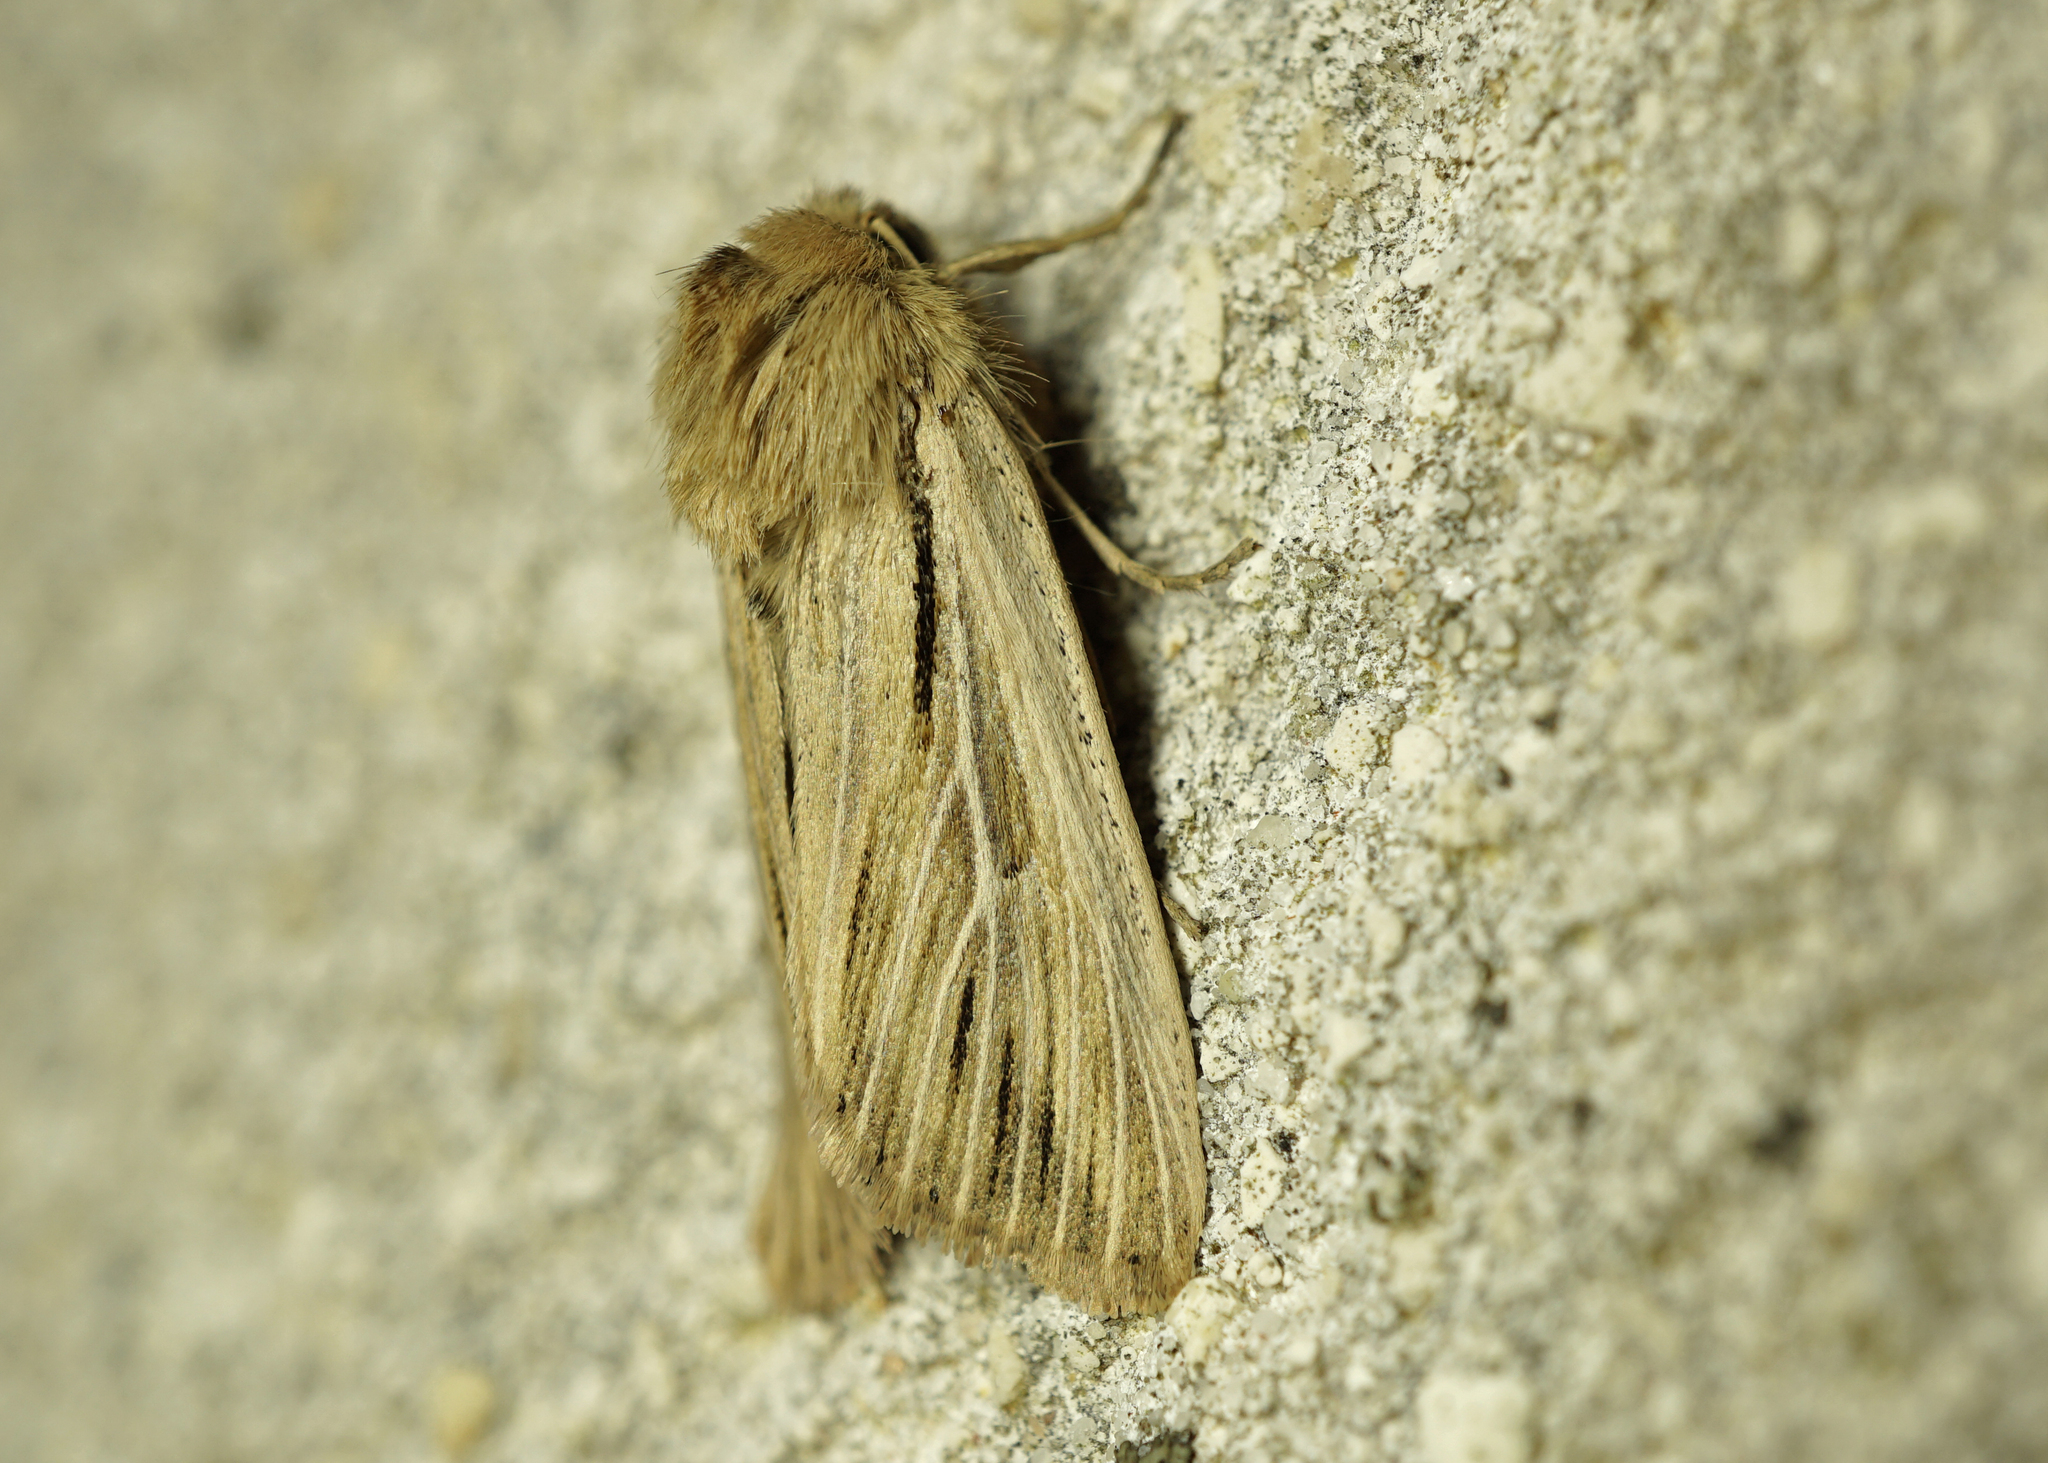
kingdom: Animalia
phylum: Arthropoda
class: Insecta
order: Lepidoptera
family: Noctuidae
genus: Leucania
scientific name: Leucania comma
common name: Shoulder-striped wainscot
